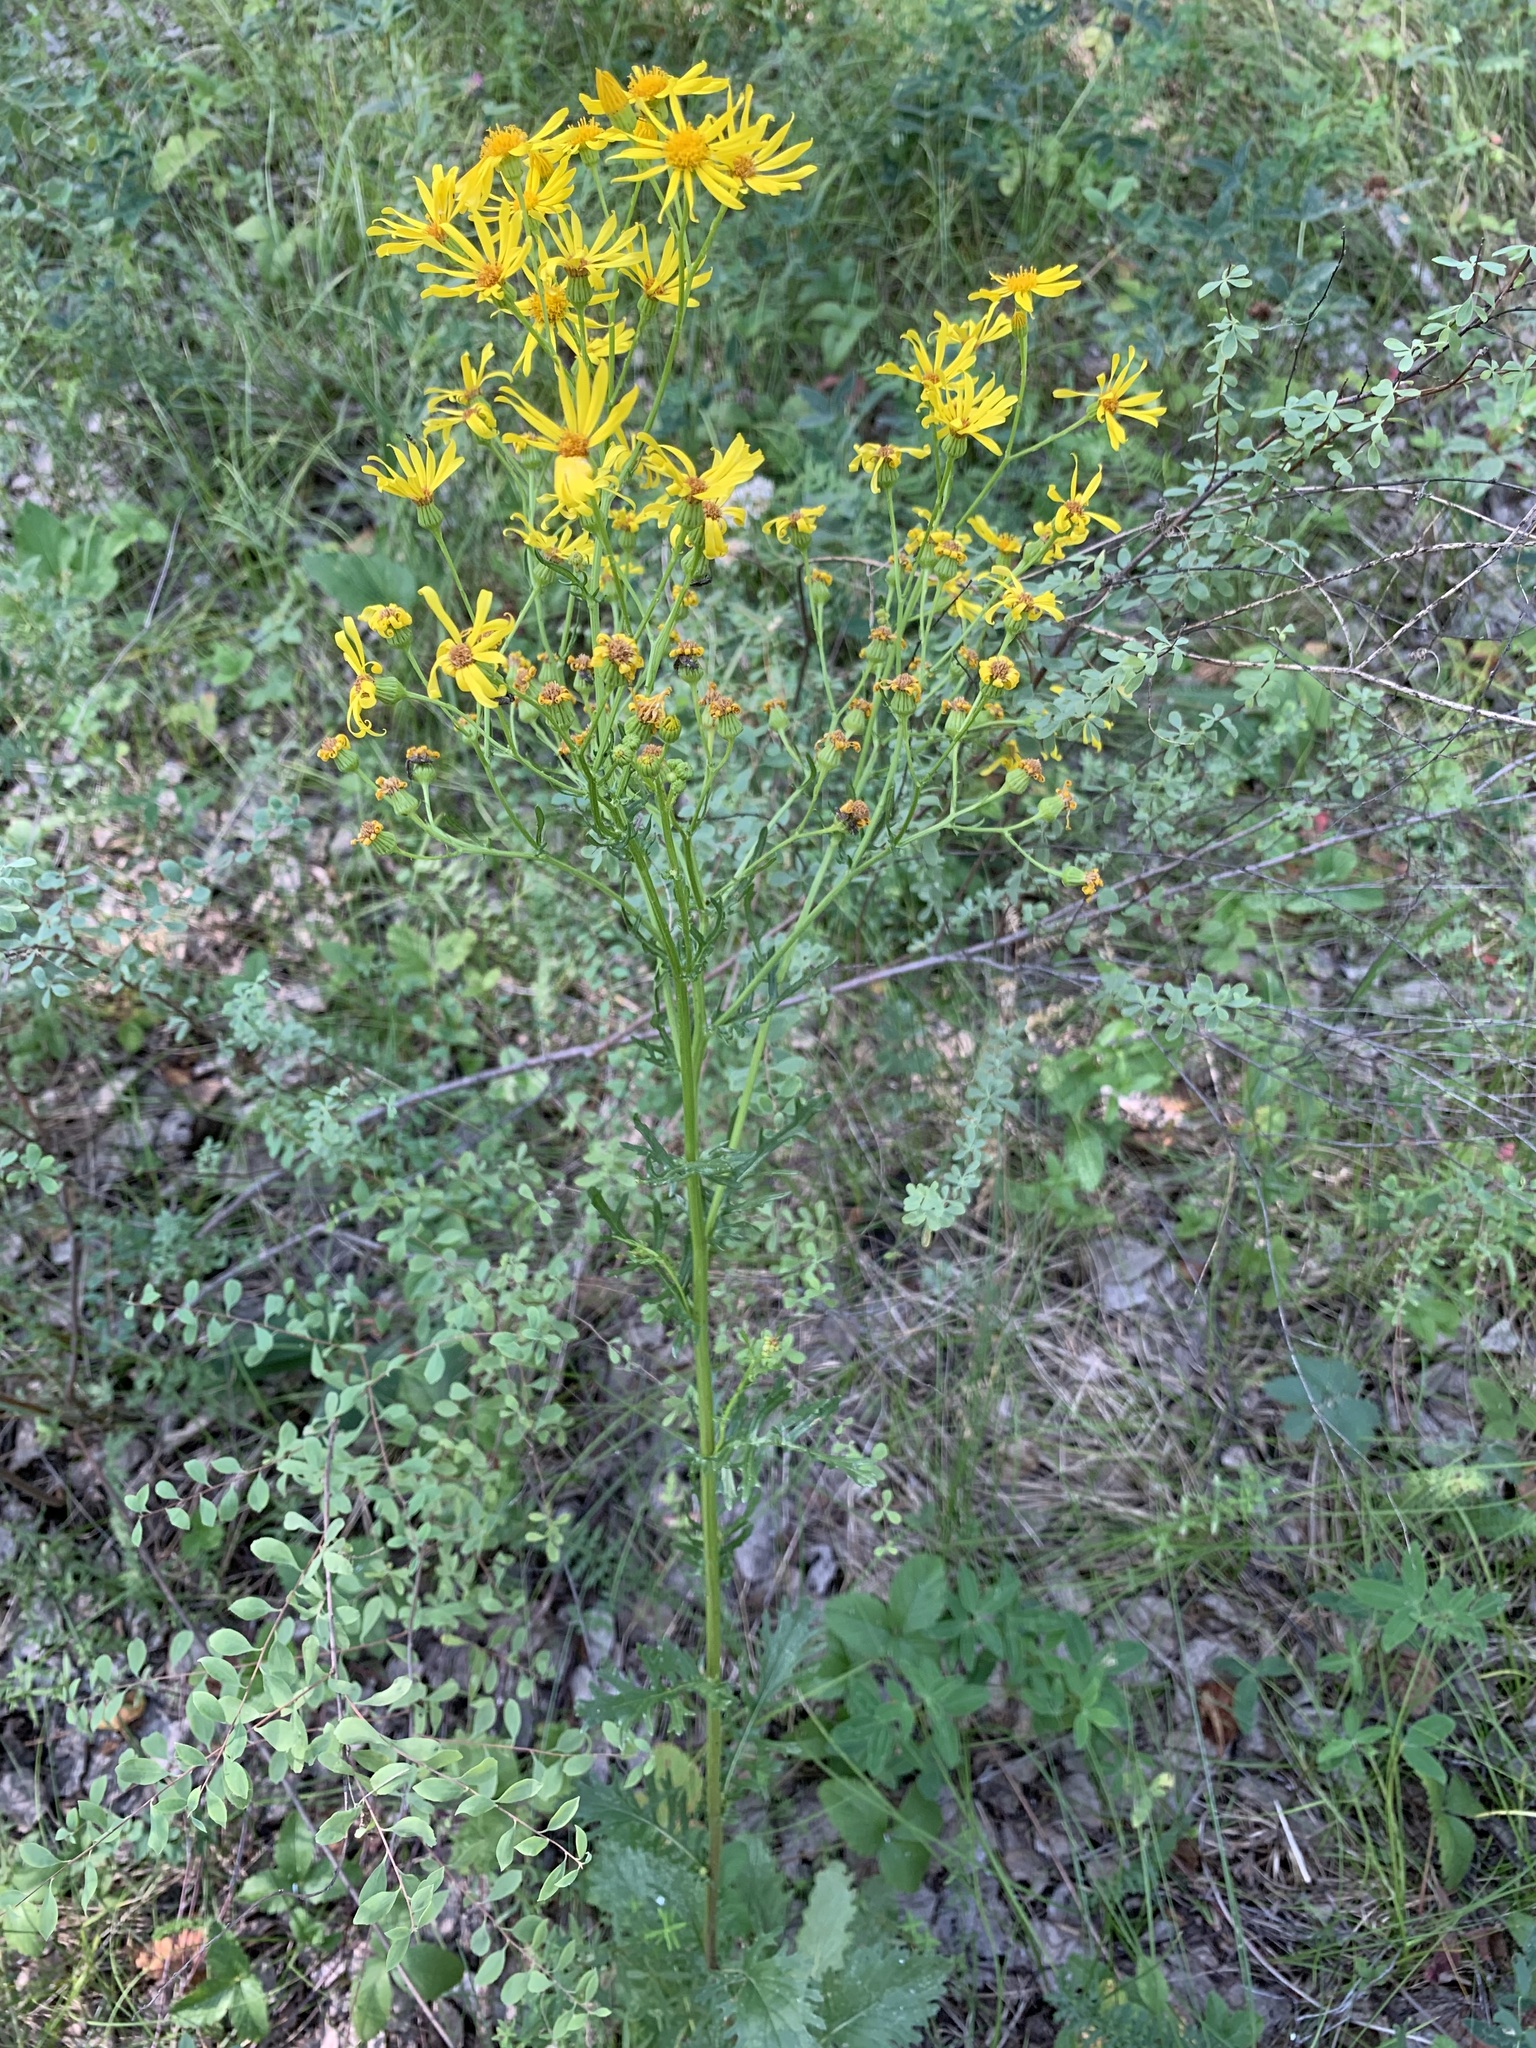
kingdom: Plantae
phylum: Tracheophyta
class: Magnoliopsida
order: Asterales
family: Asteraceae
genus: Jacobaea
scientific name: Jacobaea vulgaris
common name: Stinking willie
